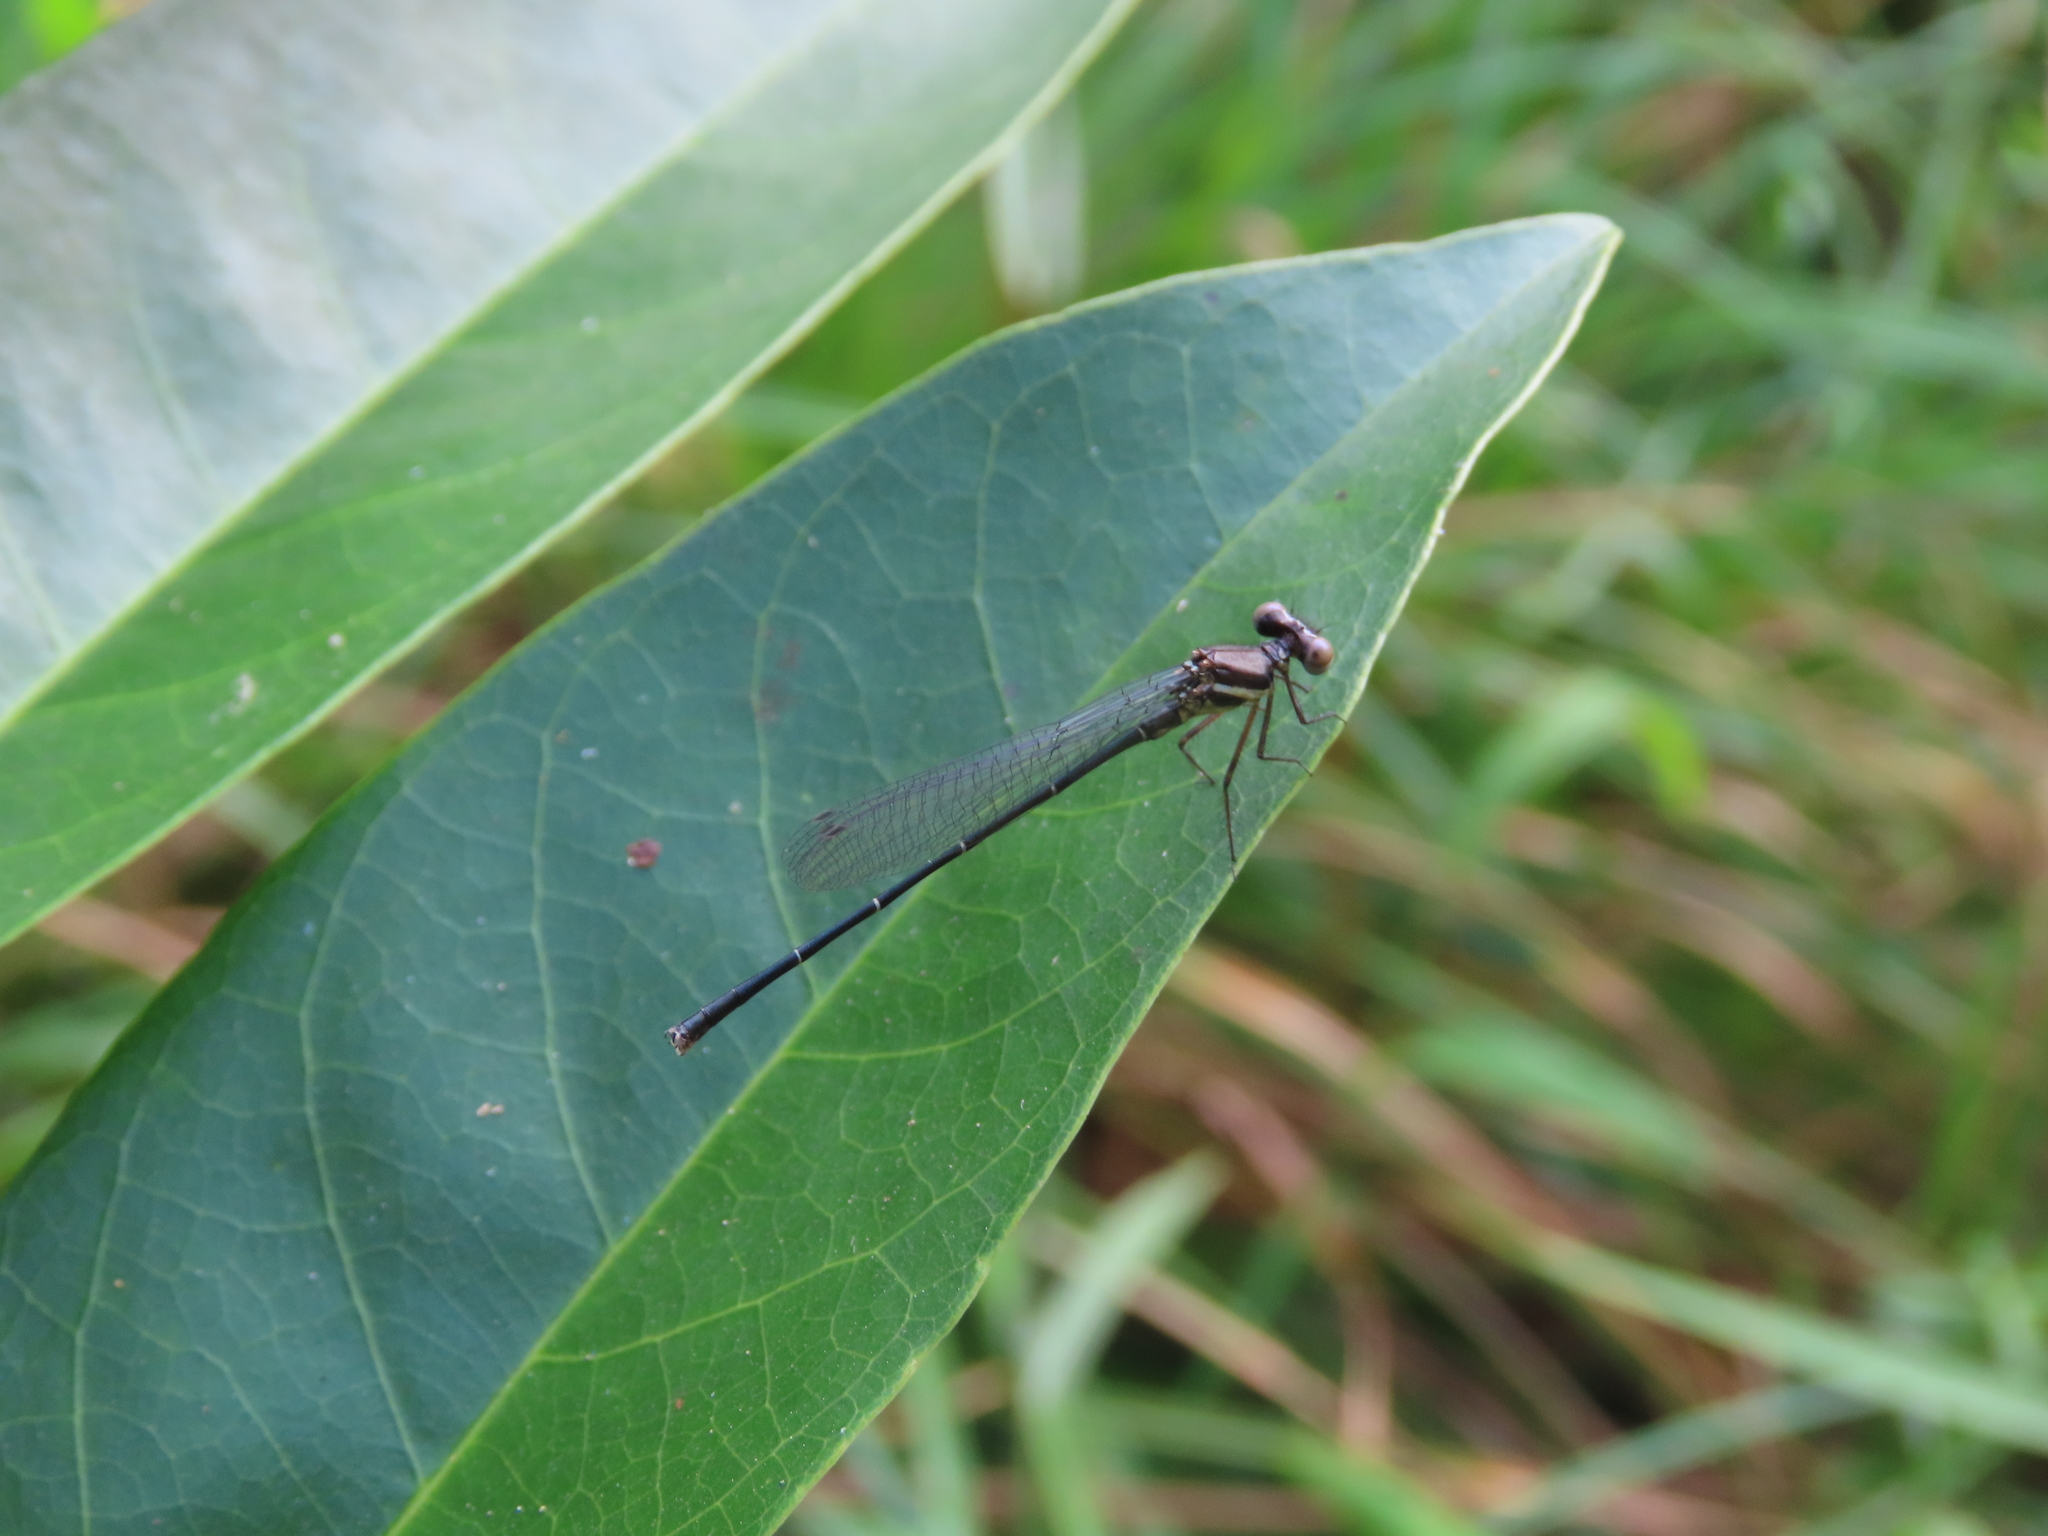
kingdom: Animalia
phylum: Arthropoda
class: Insecta
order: Odonata
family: Platycnemididae
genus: Onychargia
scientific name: Onychargia atrocyana
